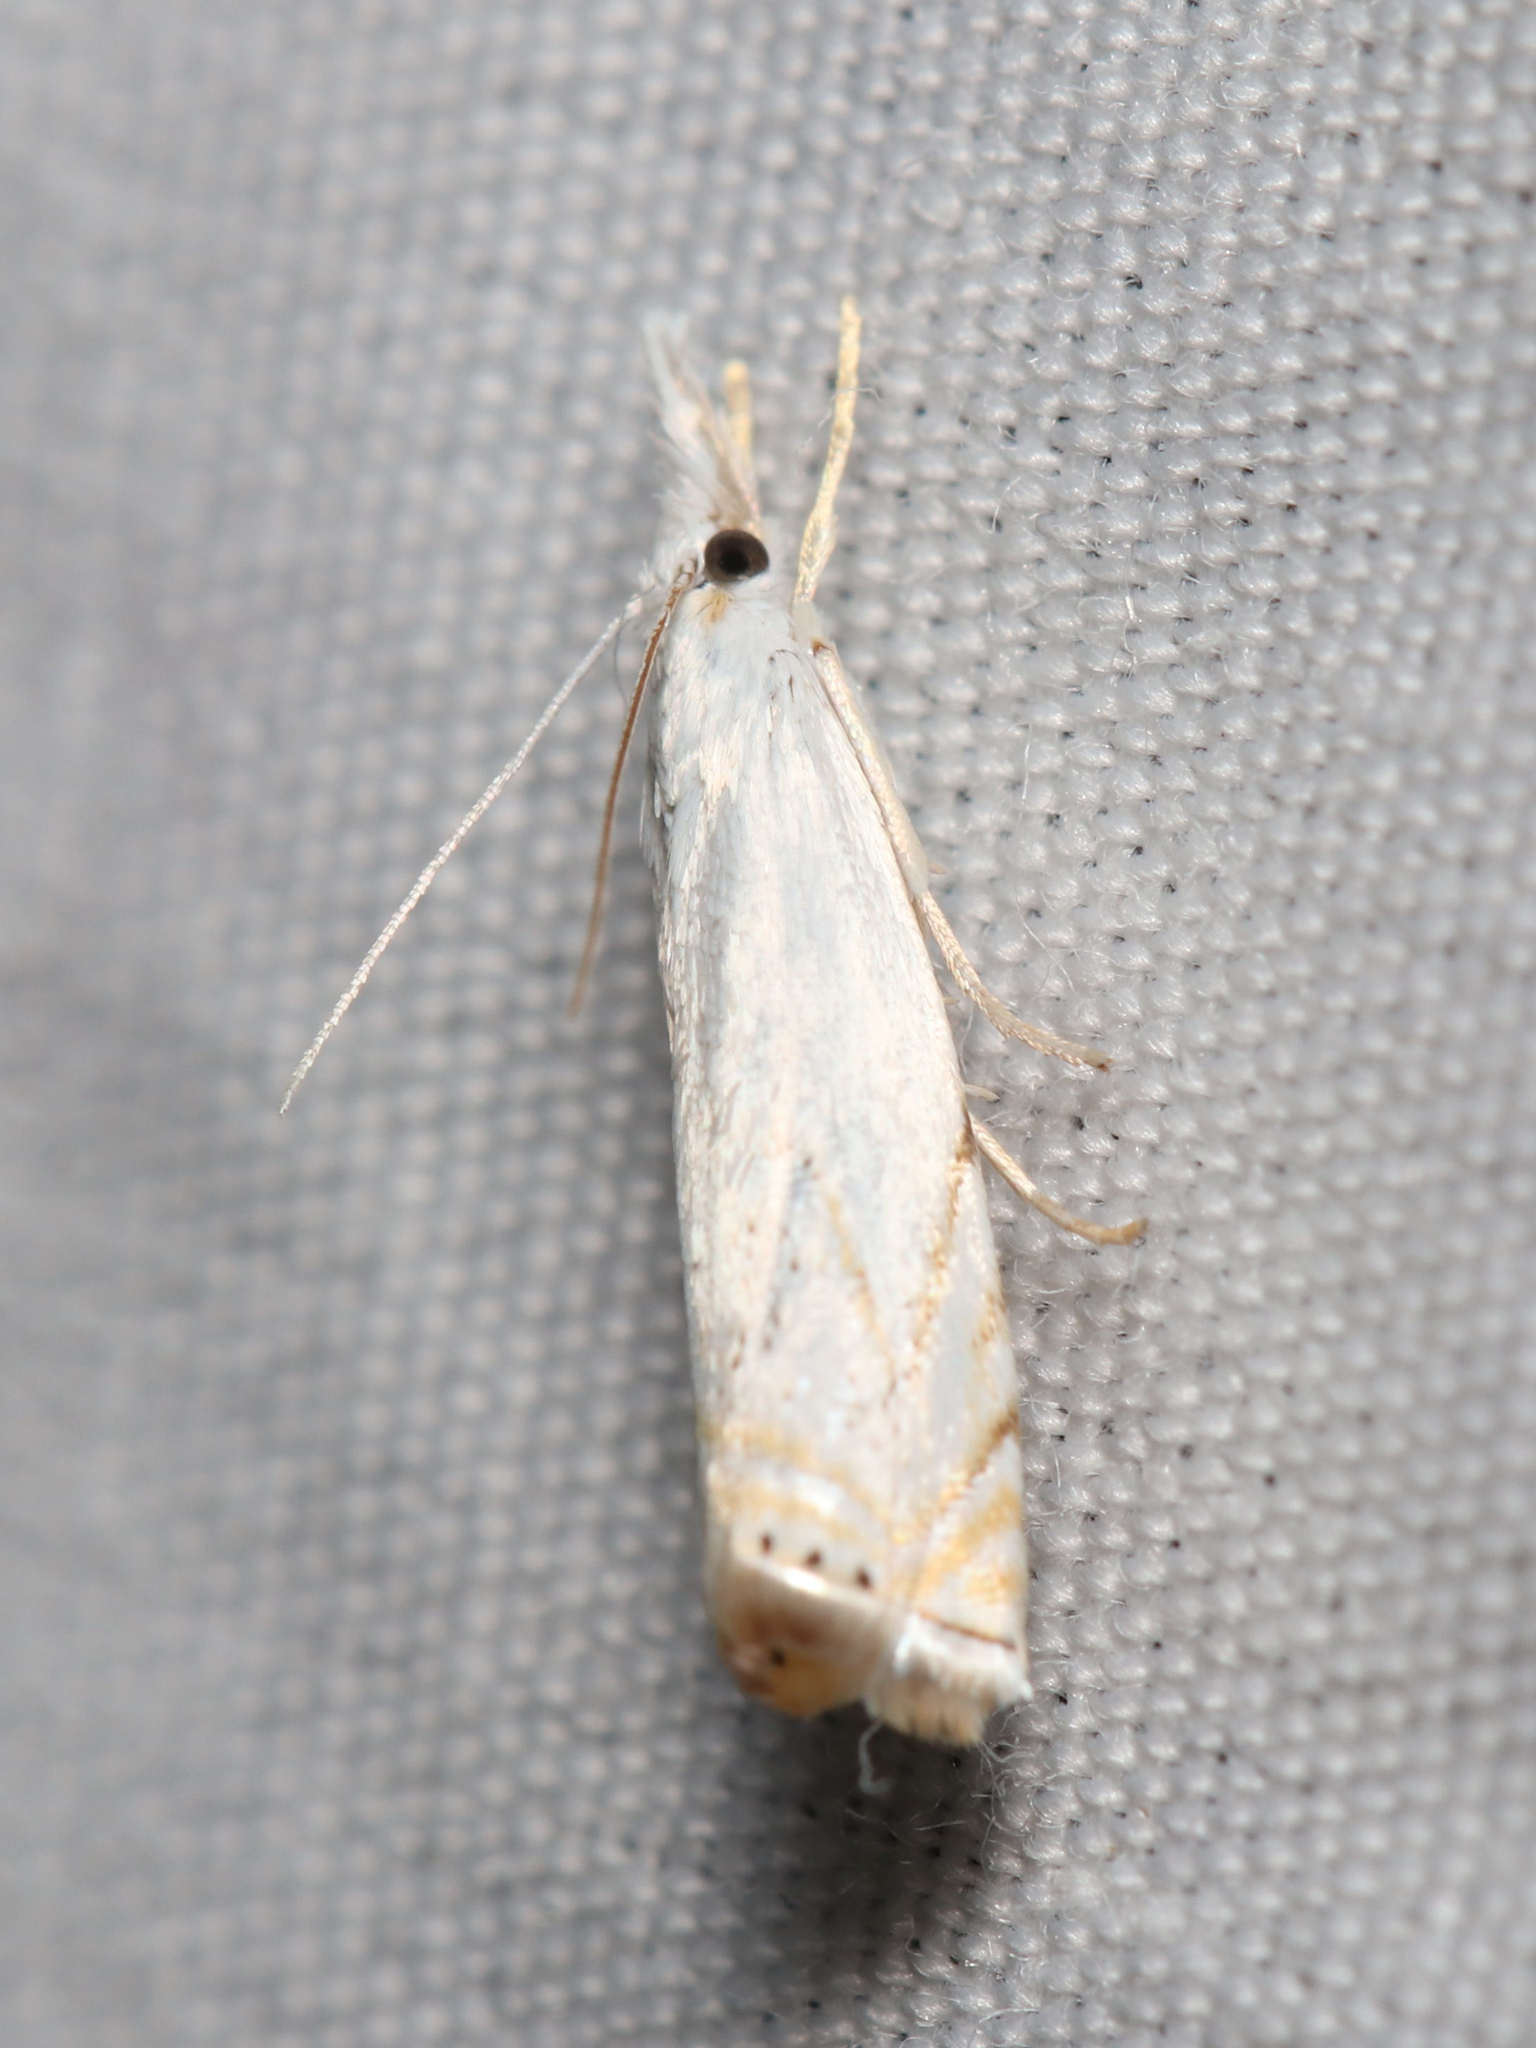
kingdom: Animalia
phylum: Arthropoda
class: Insecta
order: Lepidoptera
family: Crambidae
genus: Crambus
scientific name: Crambus albellus
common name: Small white grass-veneer
